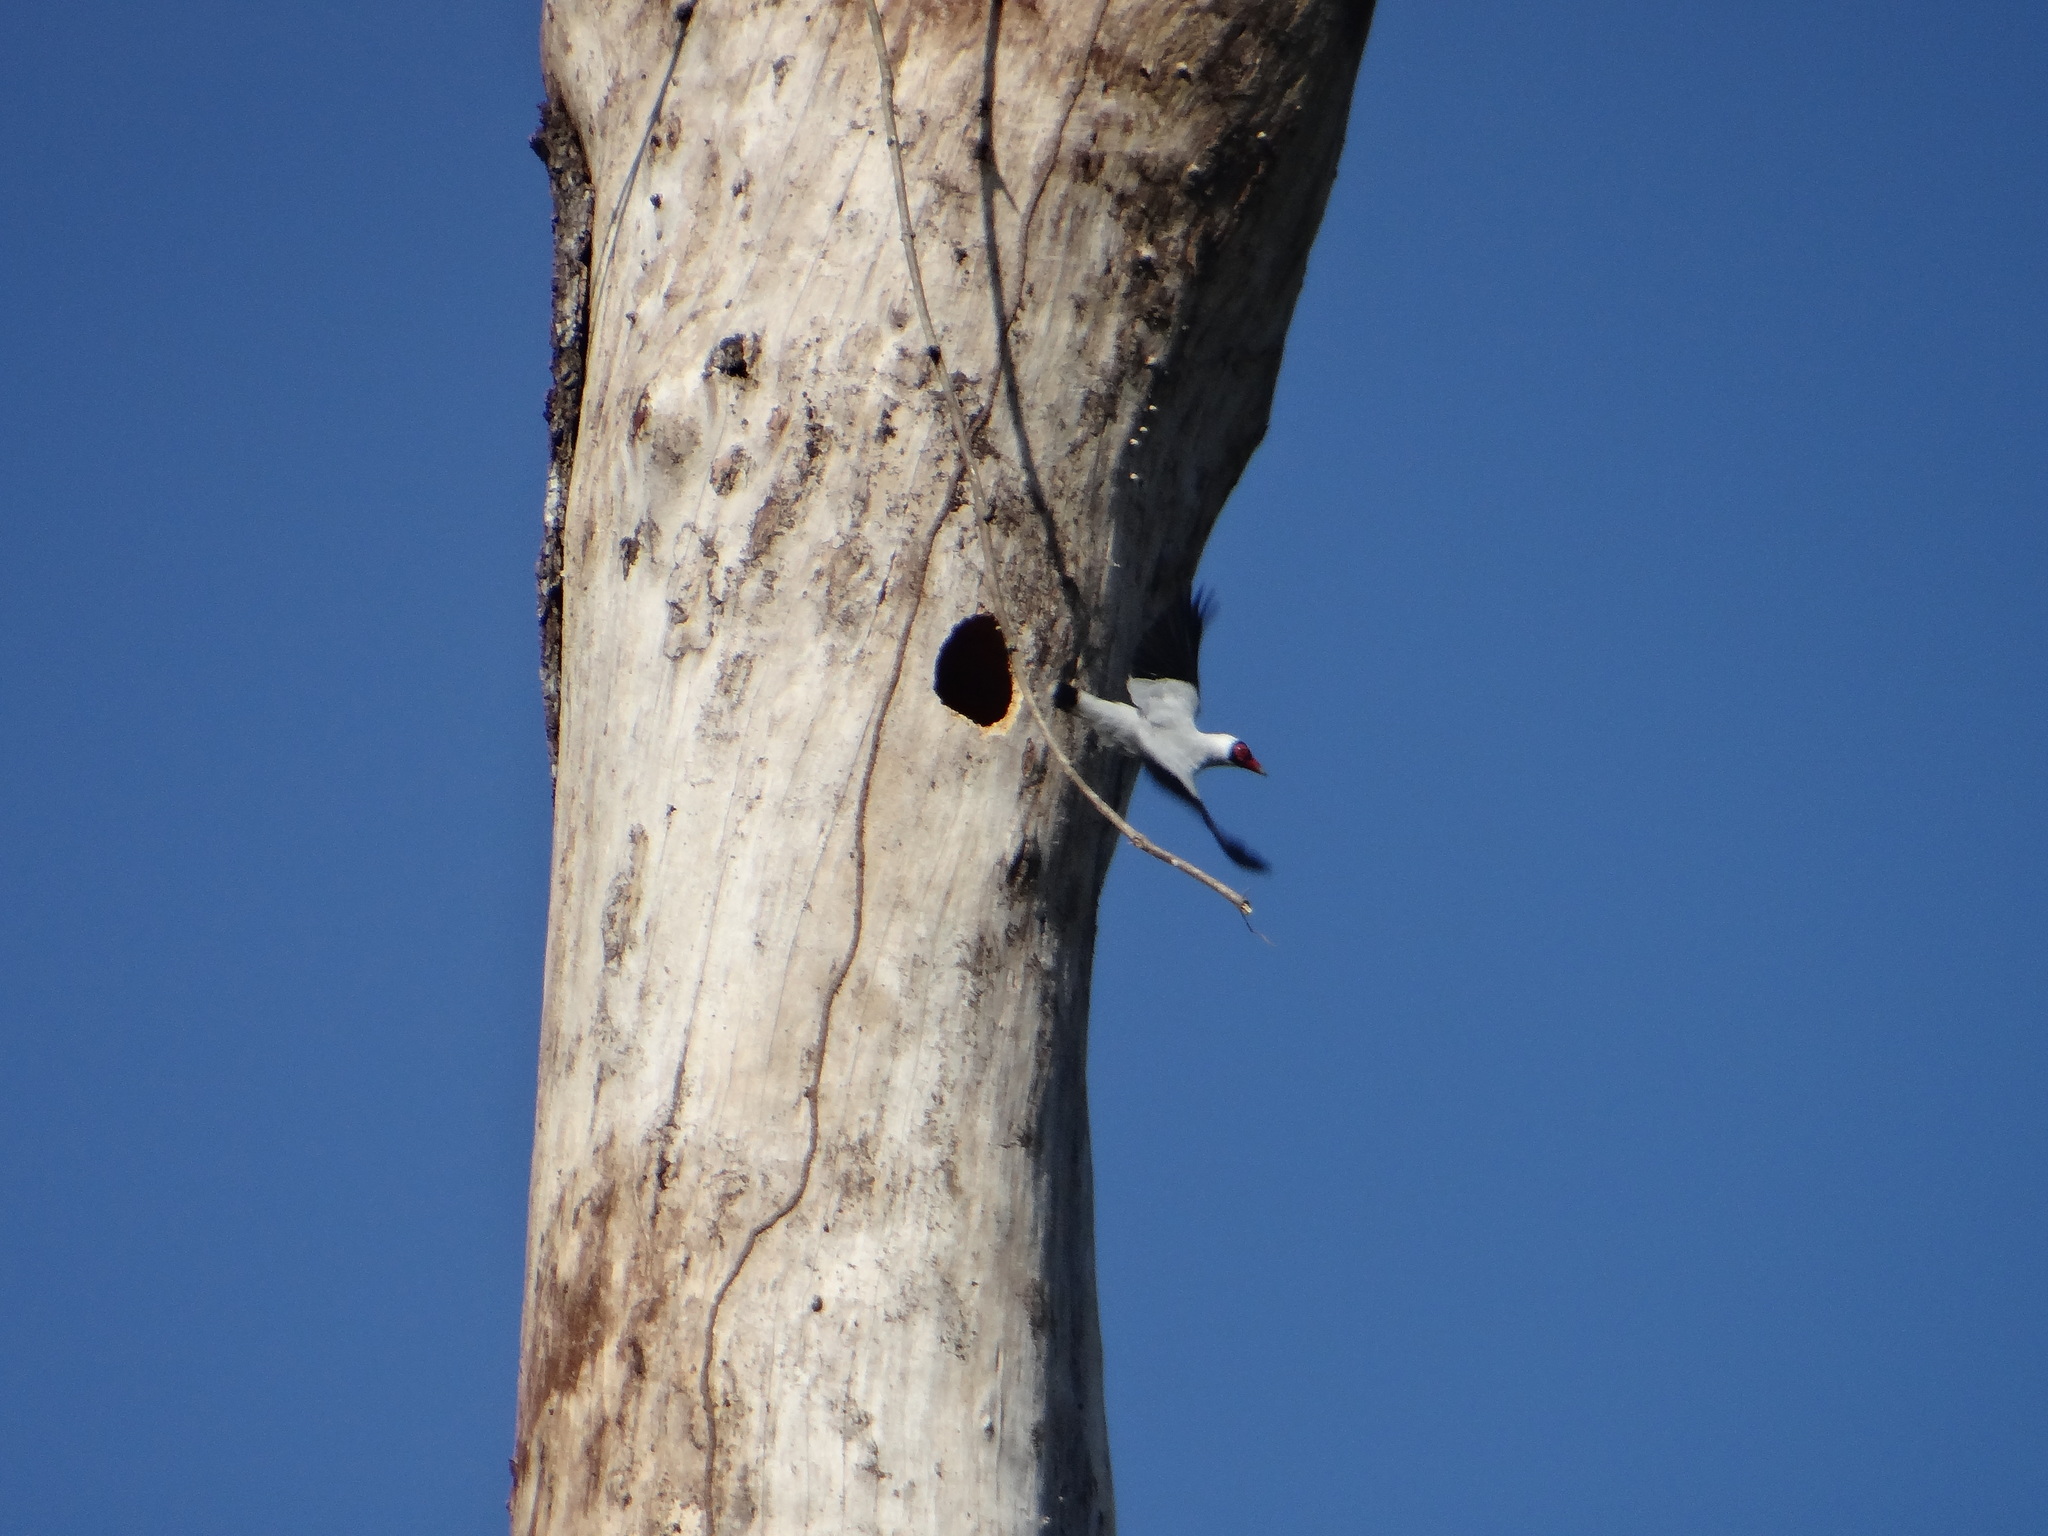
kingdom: Animalia
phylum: Chordata
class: Aves
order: Passeriformes
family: Cotingidae
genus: Tityra
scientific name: Tityra semifasciata
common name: Masked tityra
